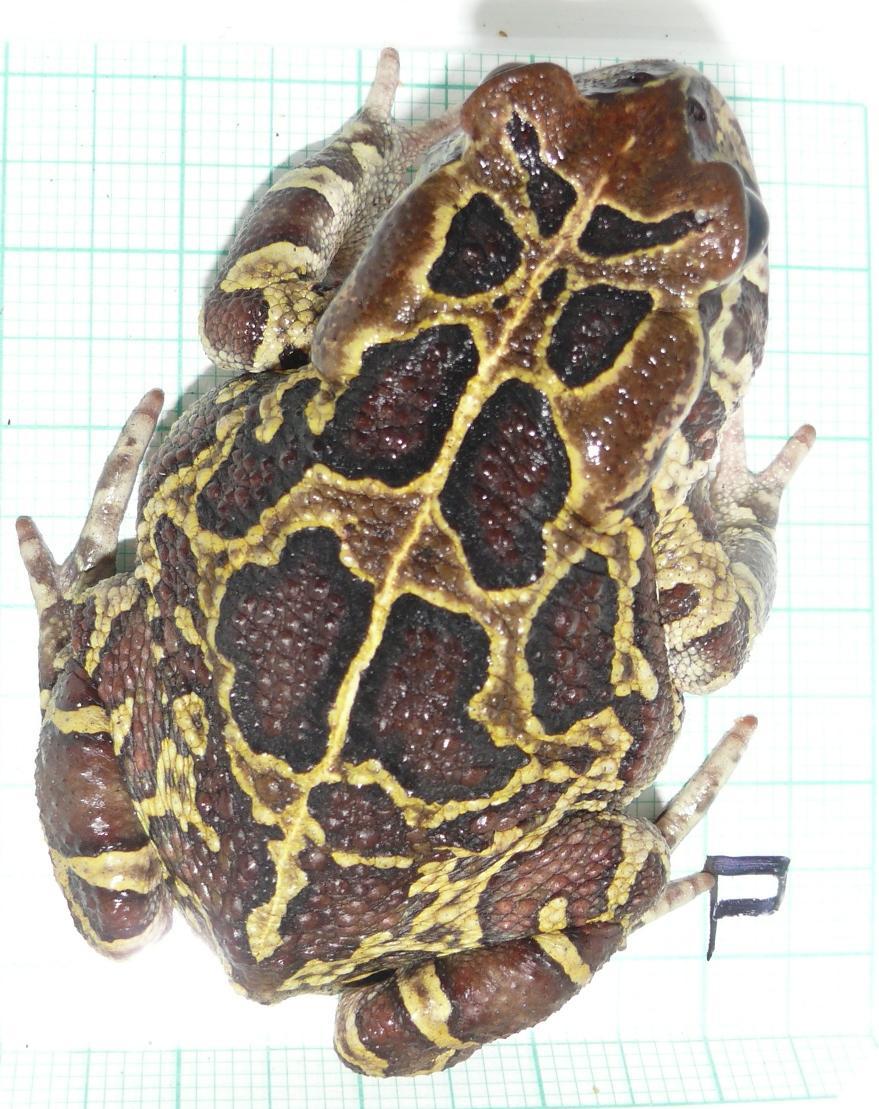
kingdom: Animalia
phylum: Chordata
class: Amphibia
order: Anura
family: Bufonidae
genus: Sclerophrys
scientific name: Sclerophrys pantherina
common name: Panther toad
